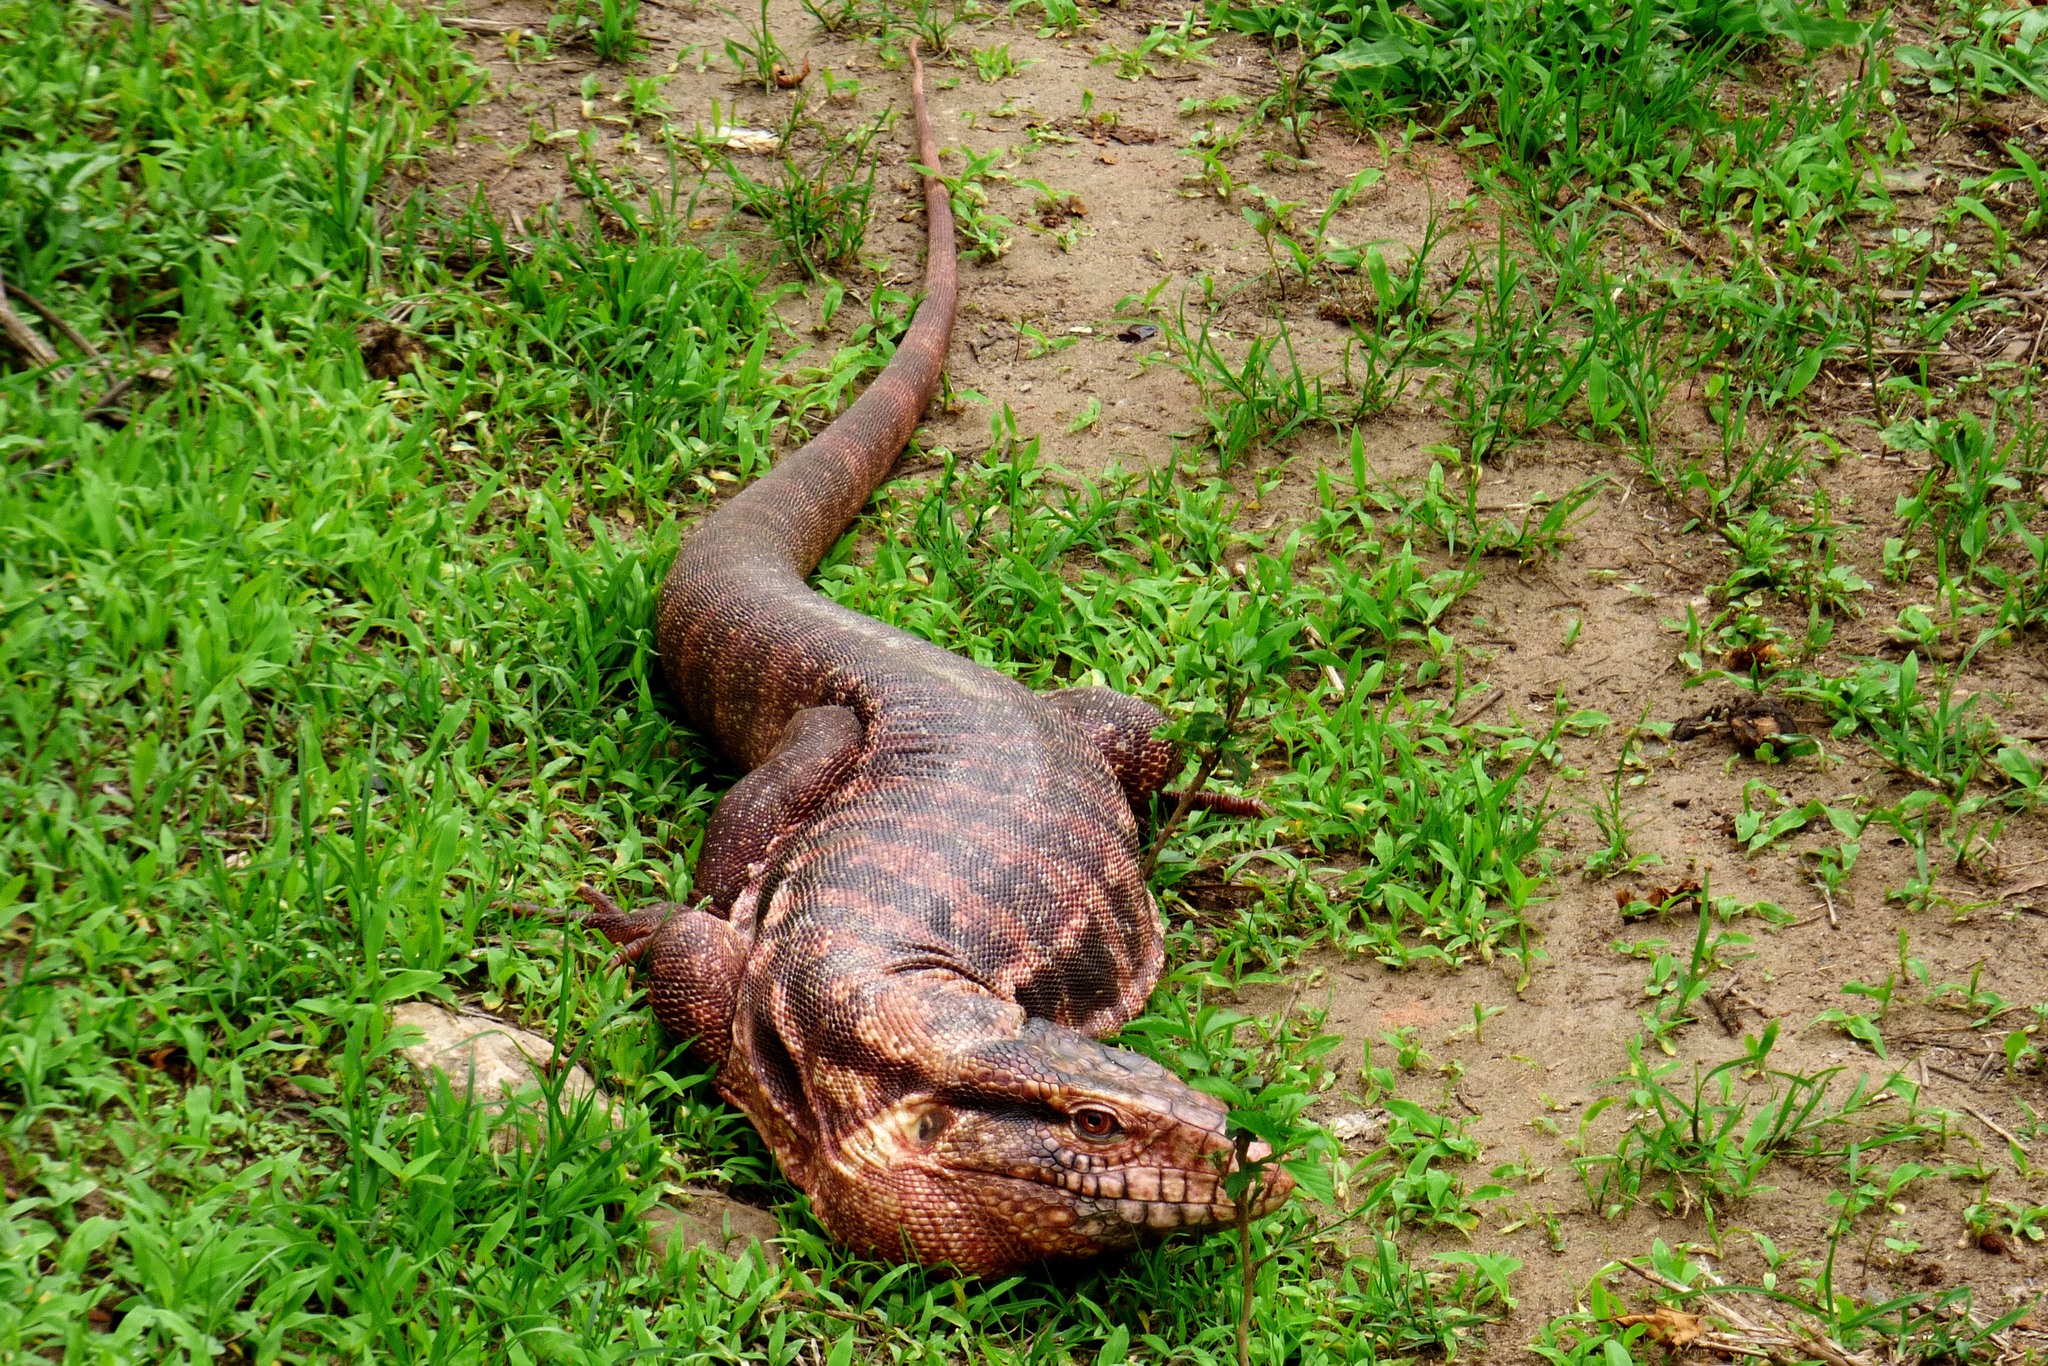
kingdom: Animalia
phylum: Chordata
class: Squamata
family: Teiidae
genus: Salvator
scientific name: Salvator rufescens
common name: Red tegu
